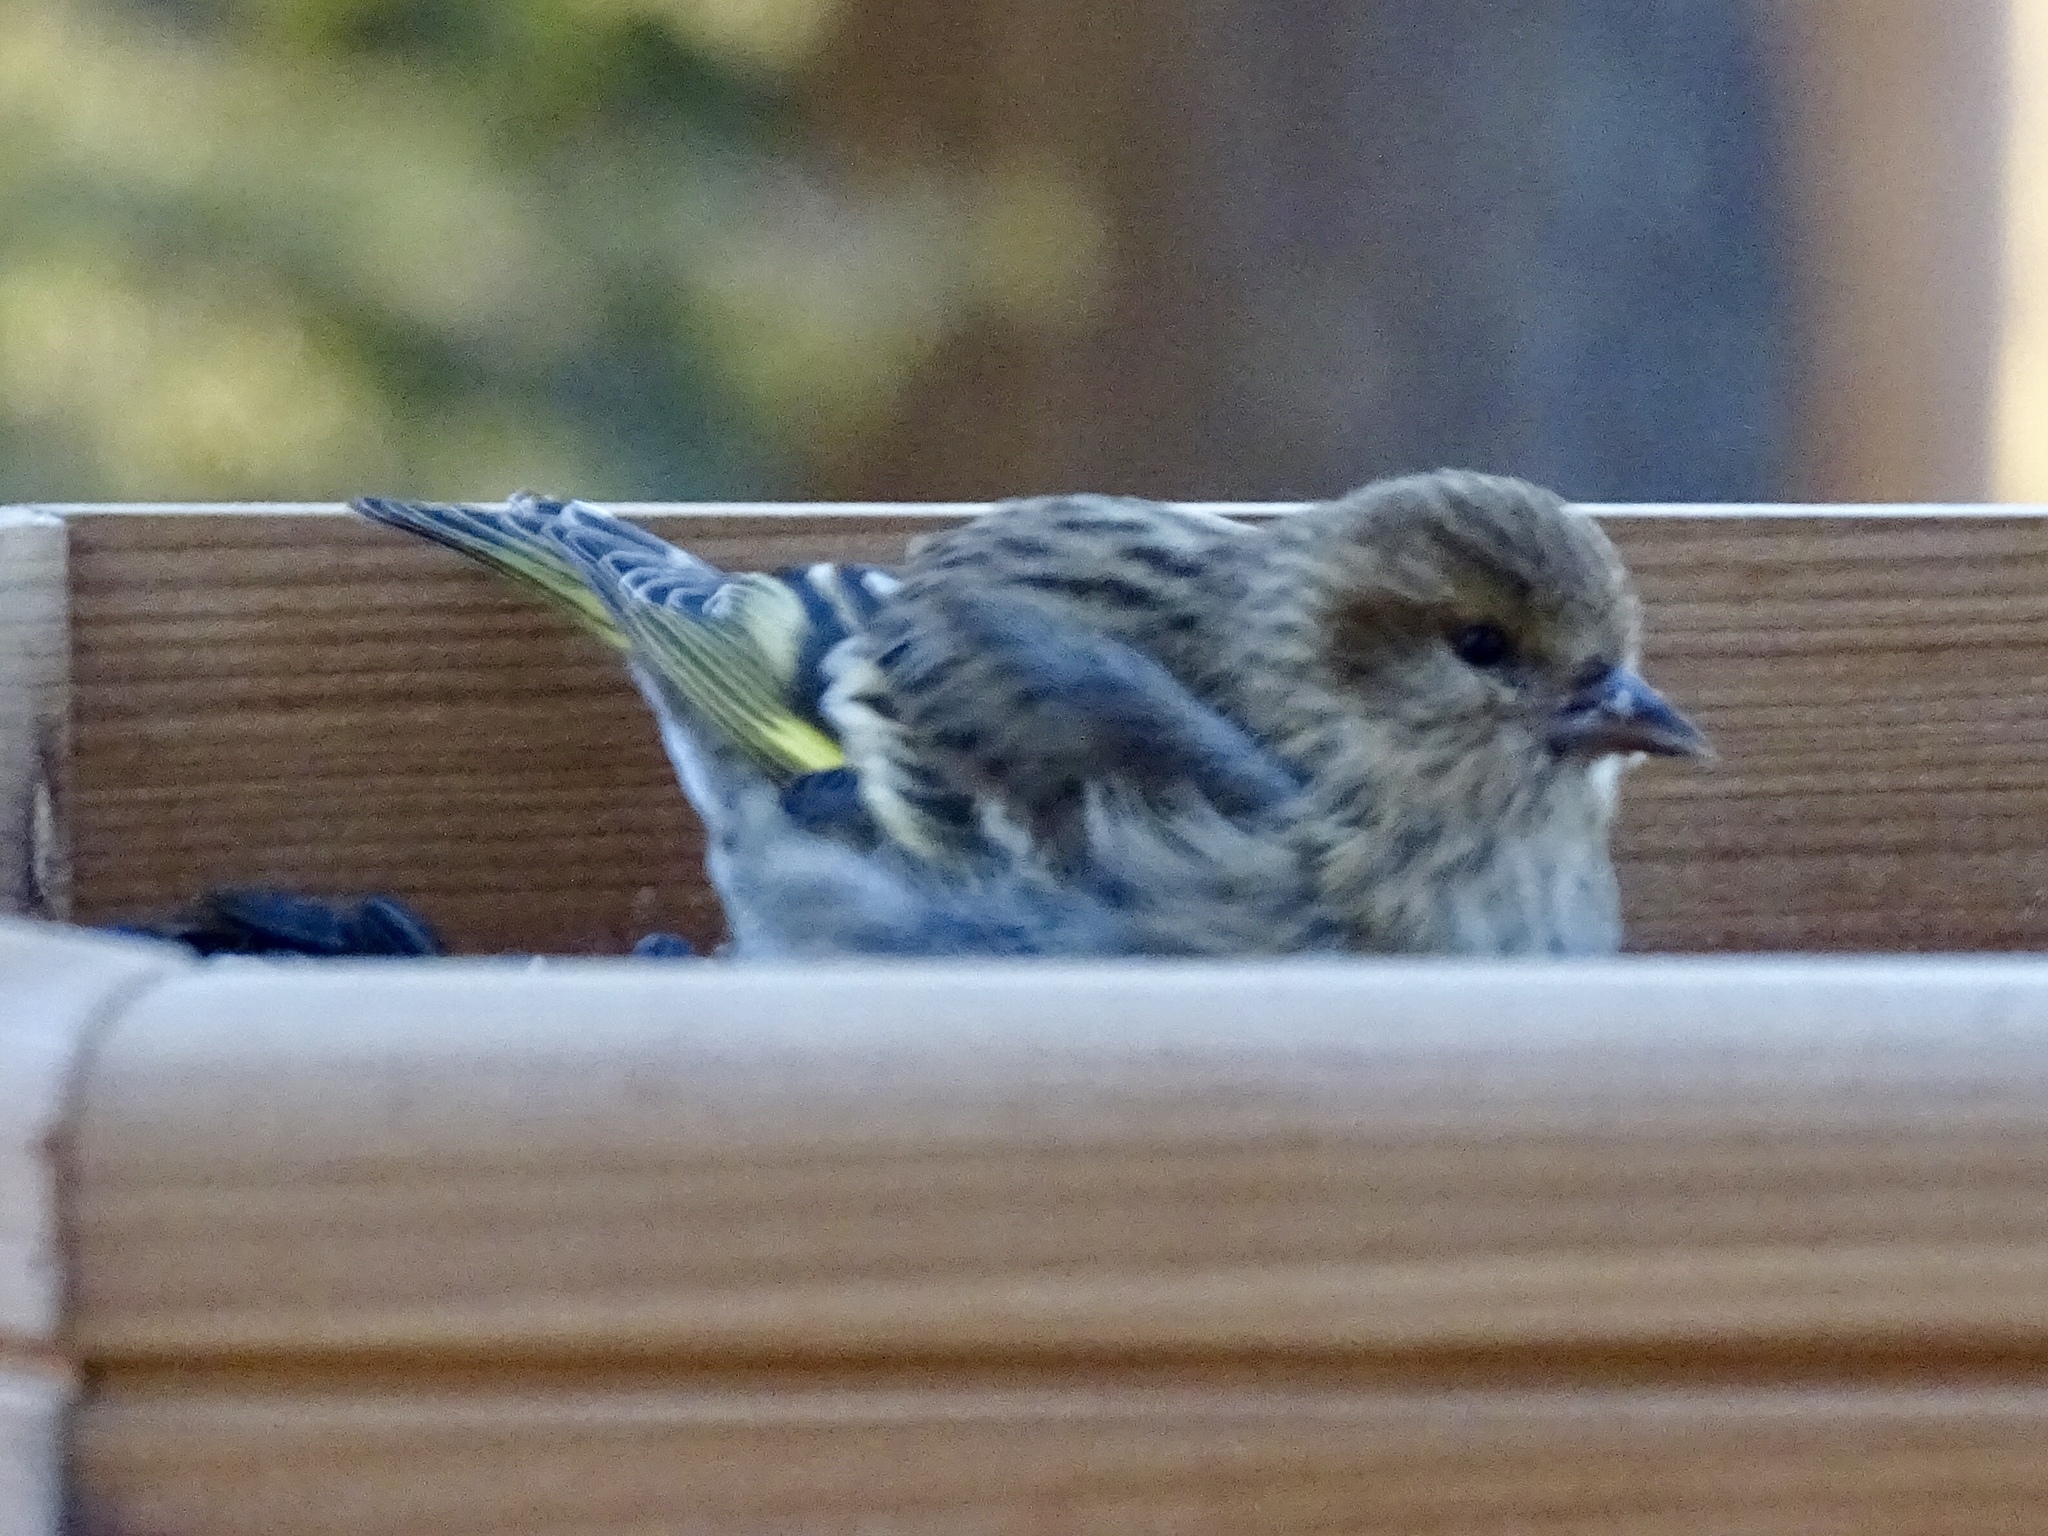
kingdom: Animalia
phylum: Chordata
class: Aves
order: Passeriformes
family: Fringillidae
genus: Spinus
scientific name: Spinus pinus
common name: Pine siskin
